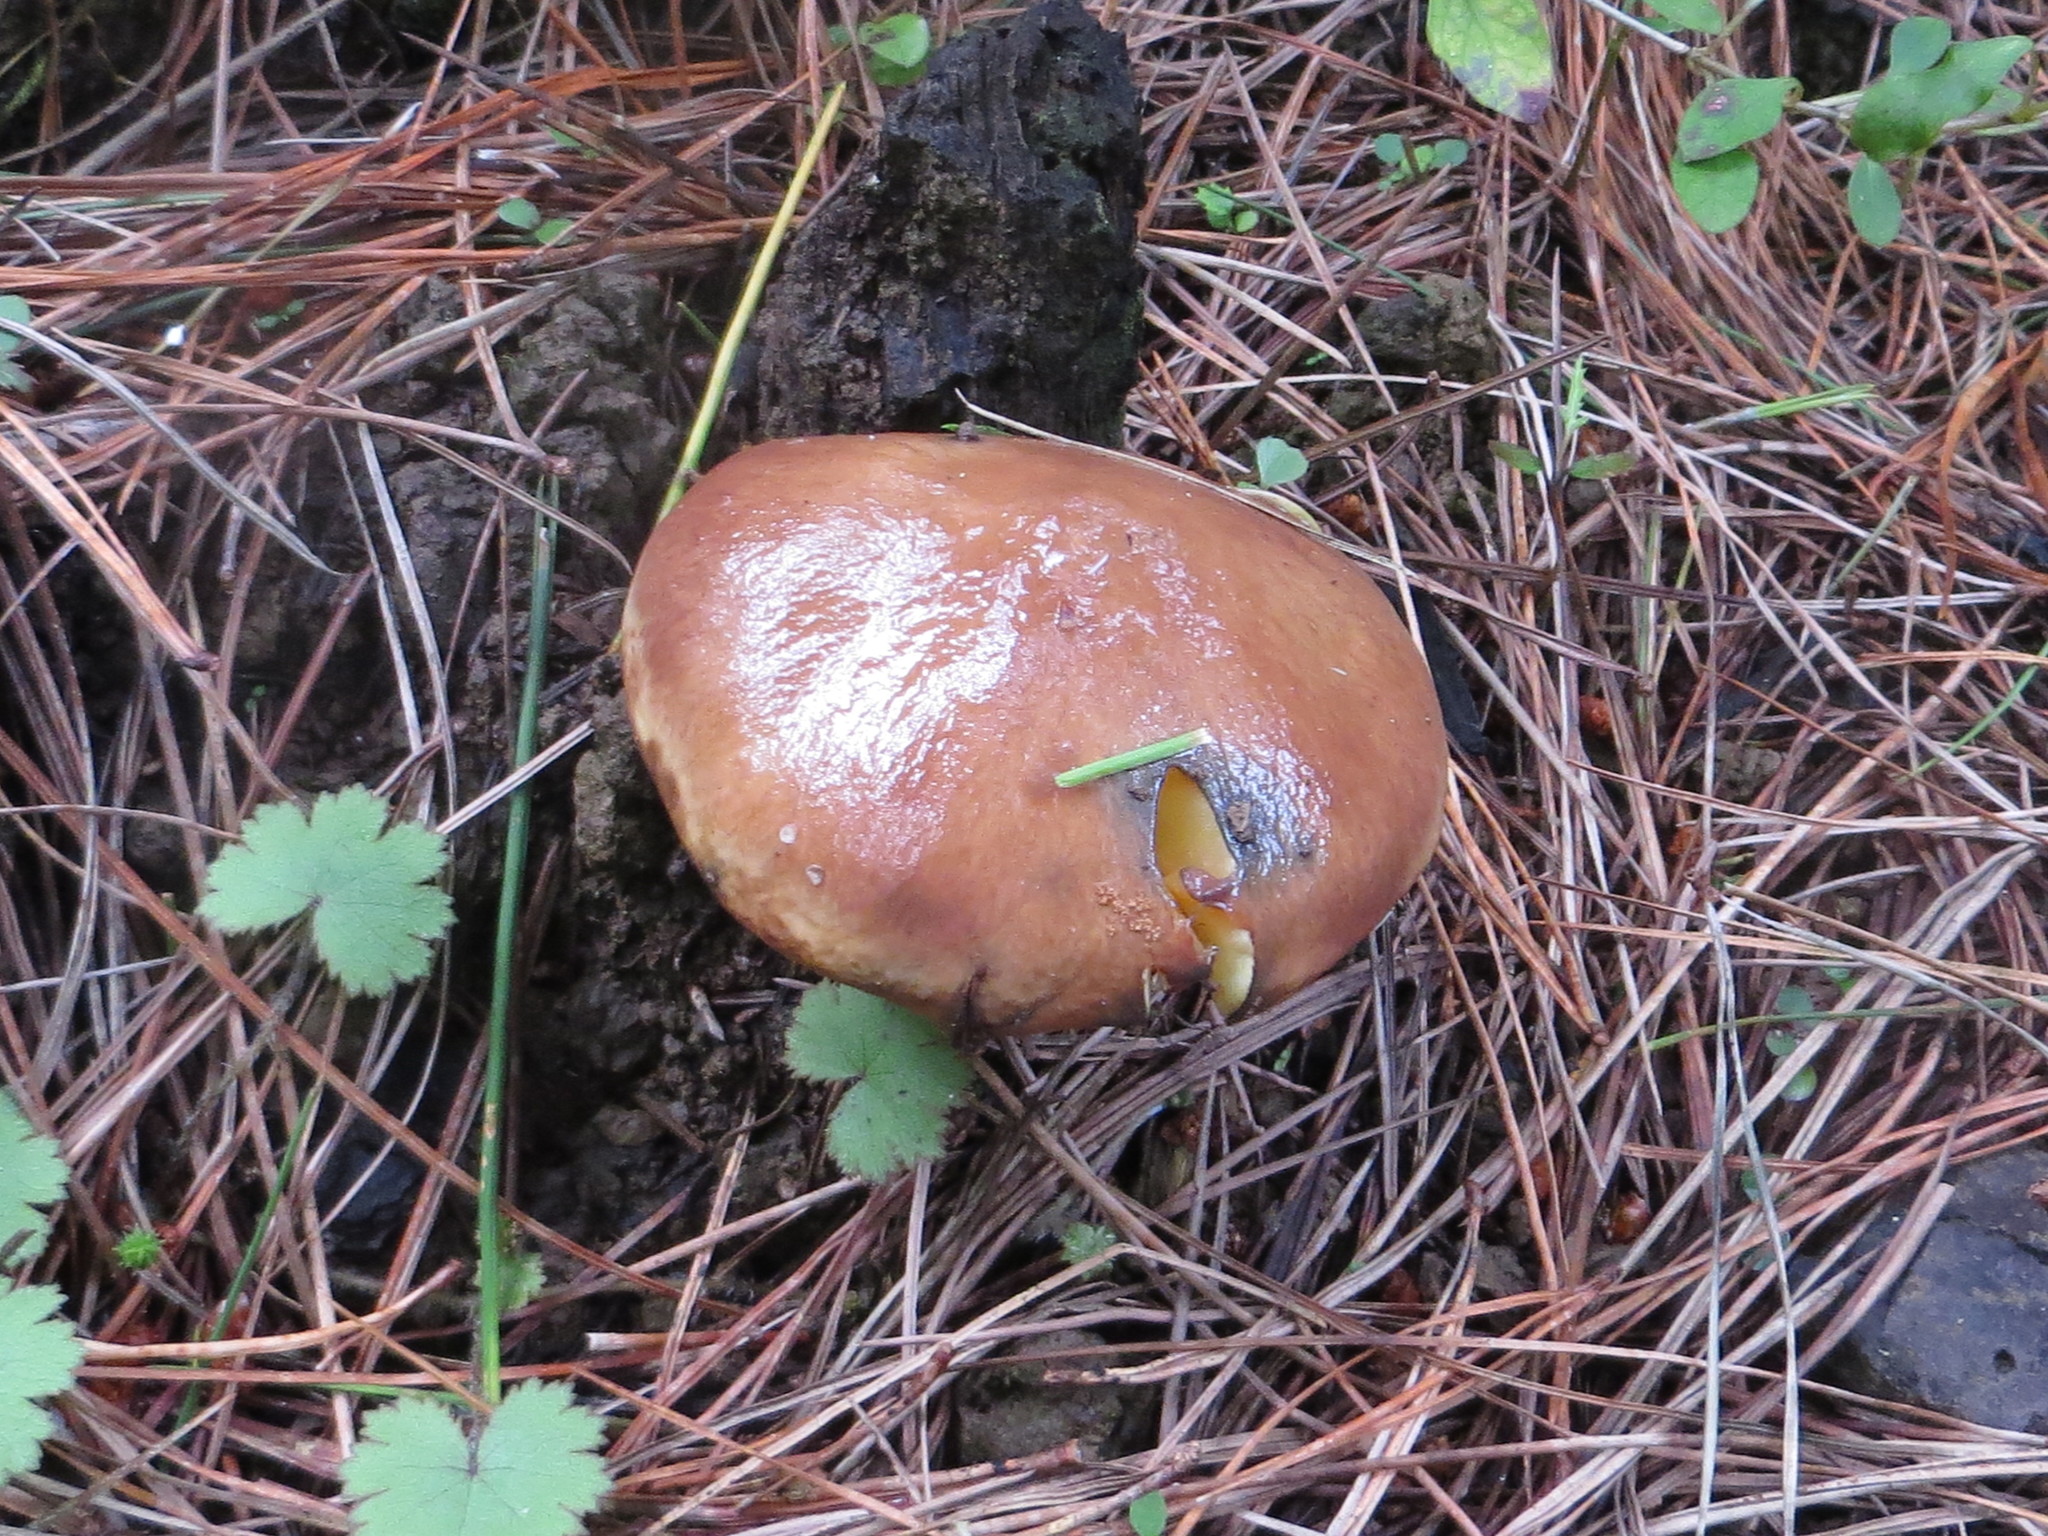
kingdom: Fungi
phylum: Basidiomycota
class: Agaricomycetes
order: Boletales
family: Suillaceae
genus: Suillus
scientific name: Suillus luteus
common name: Slippery jack
